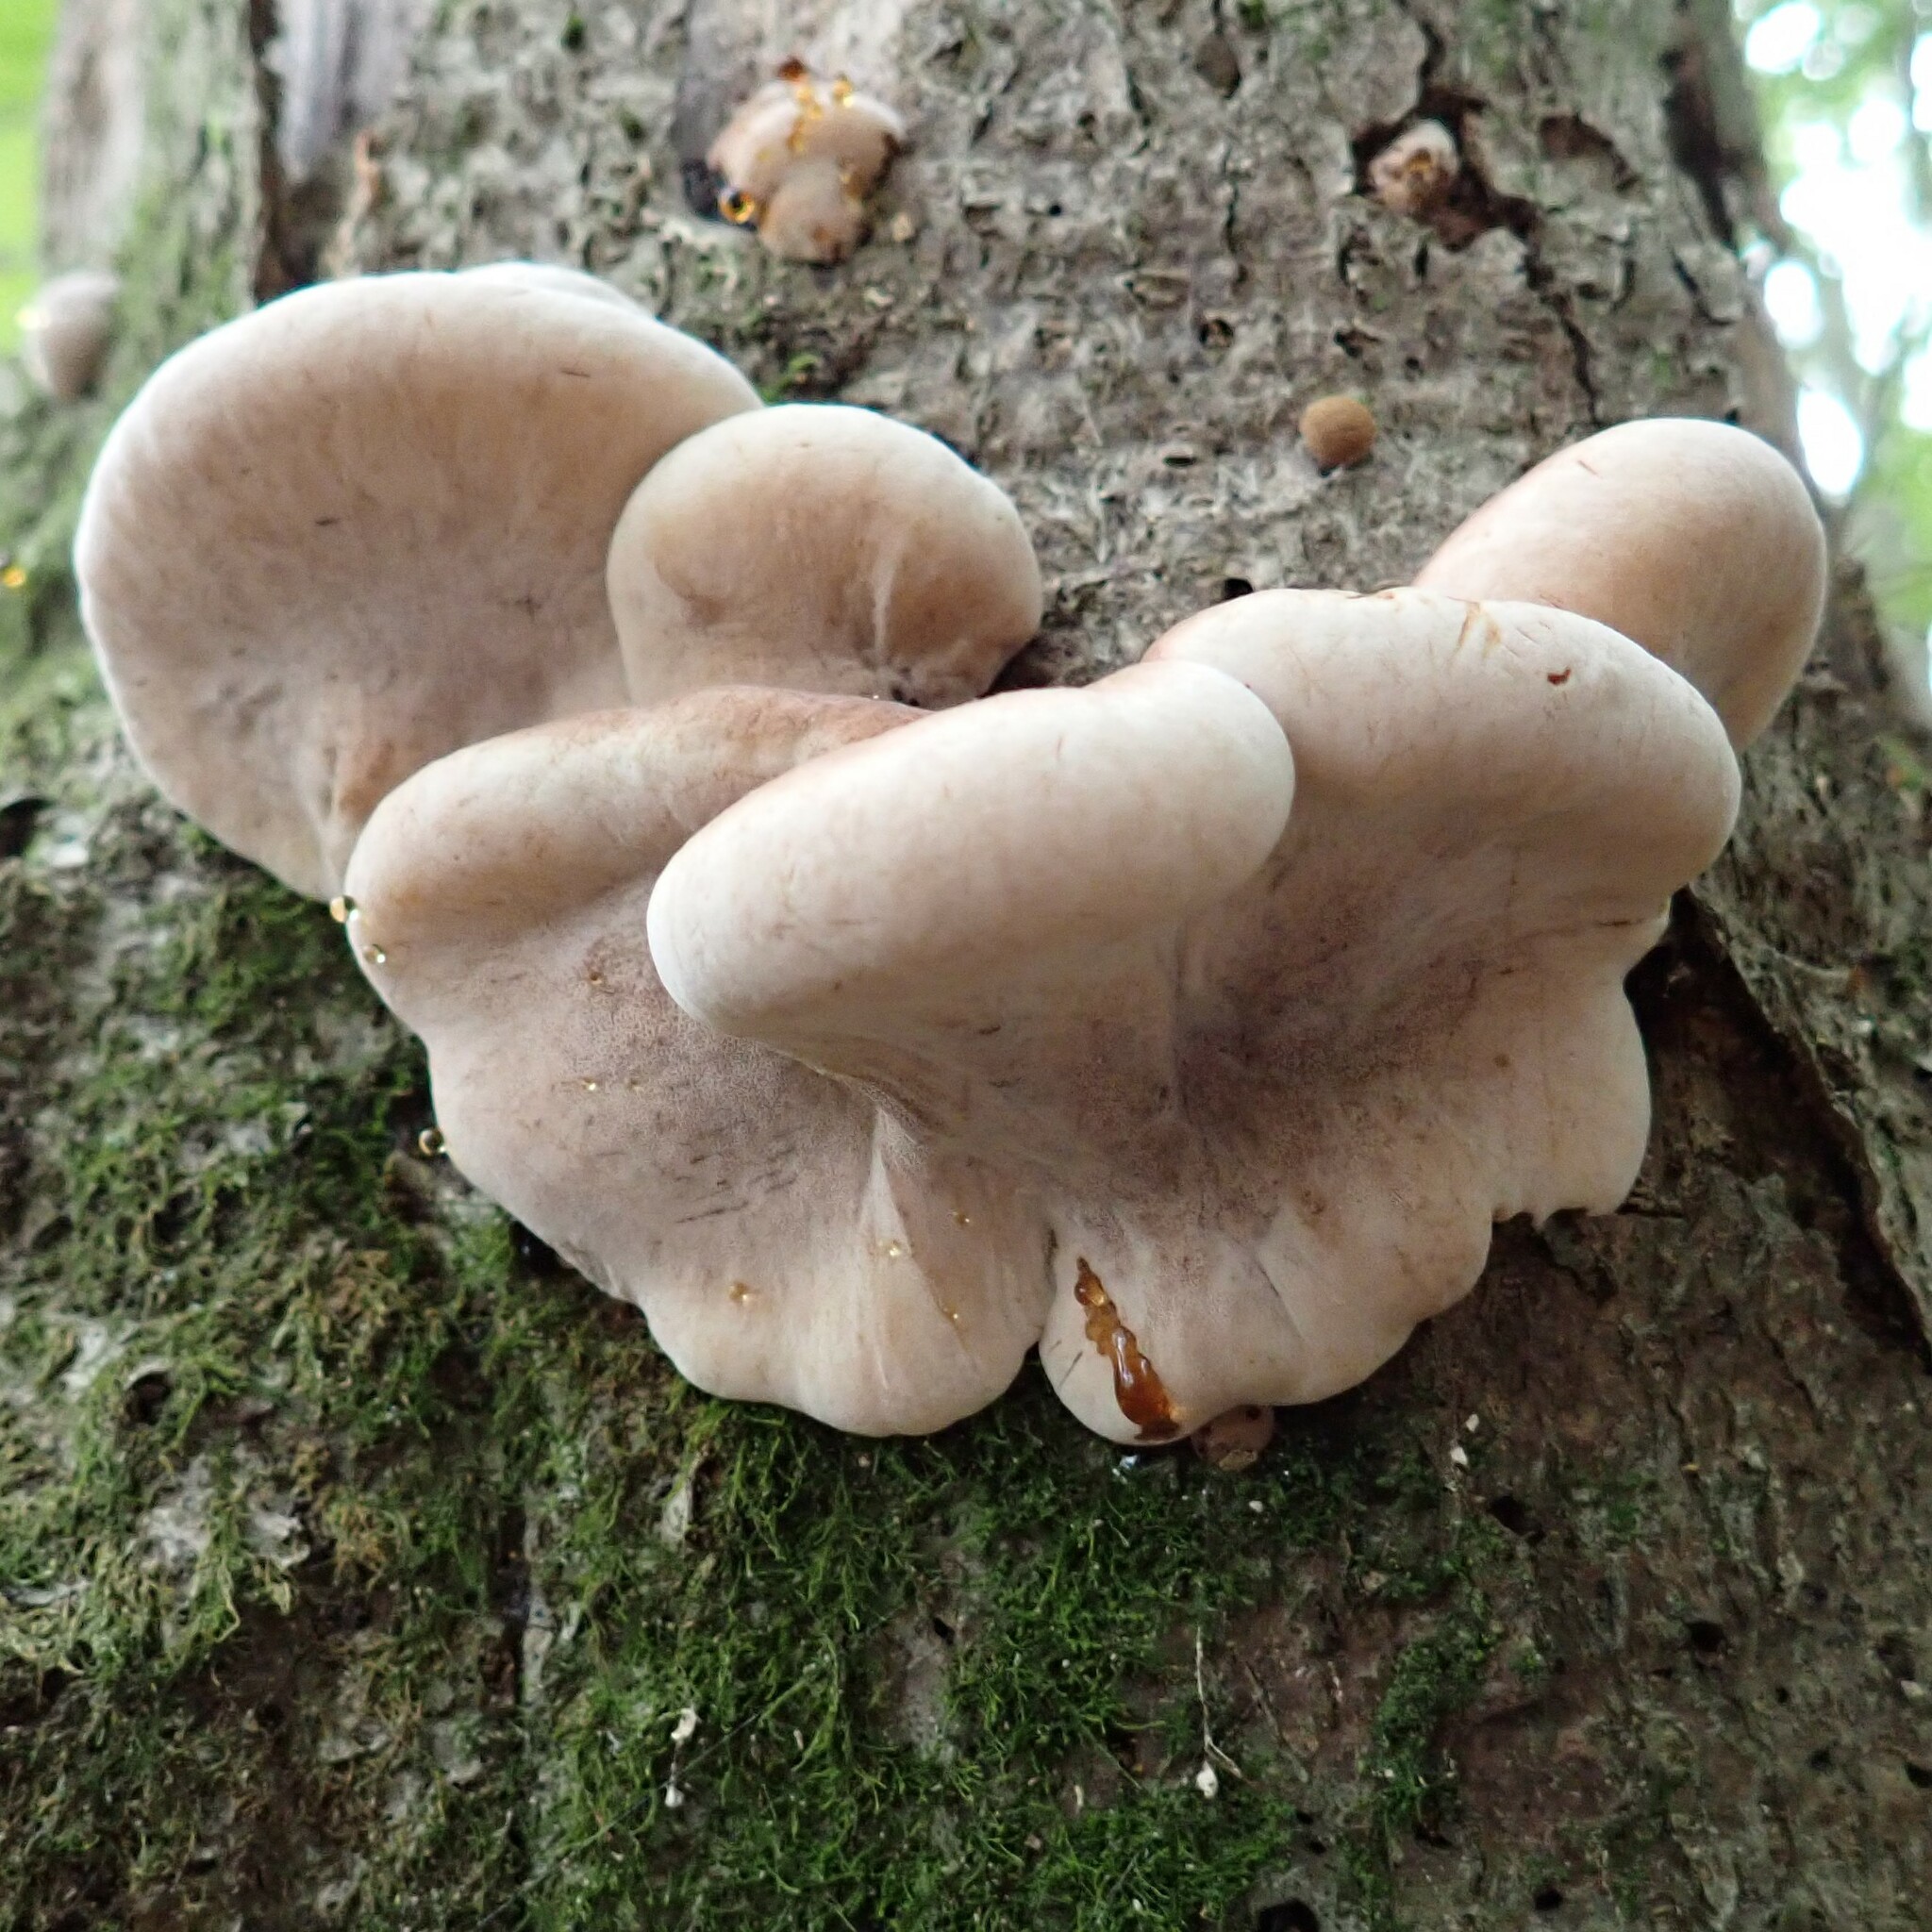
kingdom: Fungi
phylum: Basidiomycota
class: Agaricomycetes
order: Polyporales
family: Ischnodermataceae
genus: Ischnoderma
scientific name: Ischnoderma resinosum
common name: Resinous polypore
